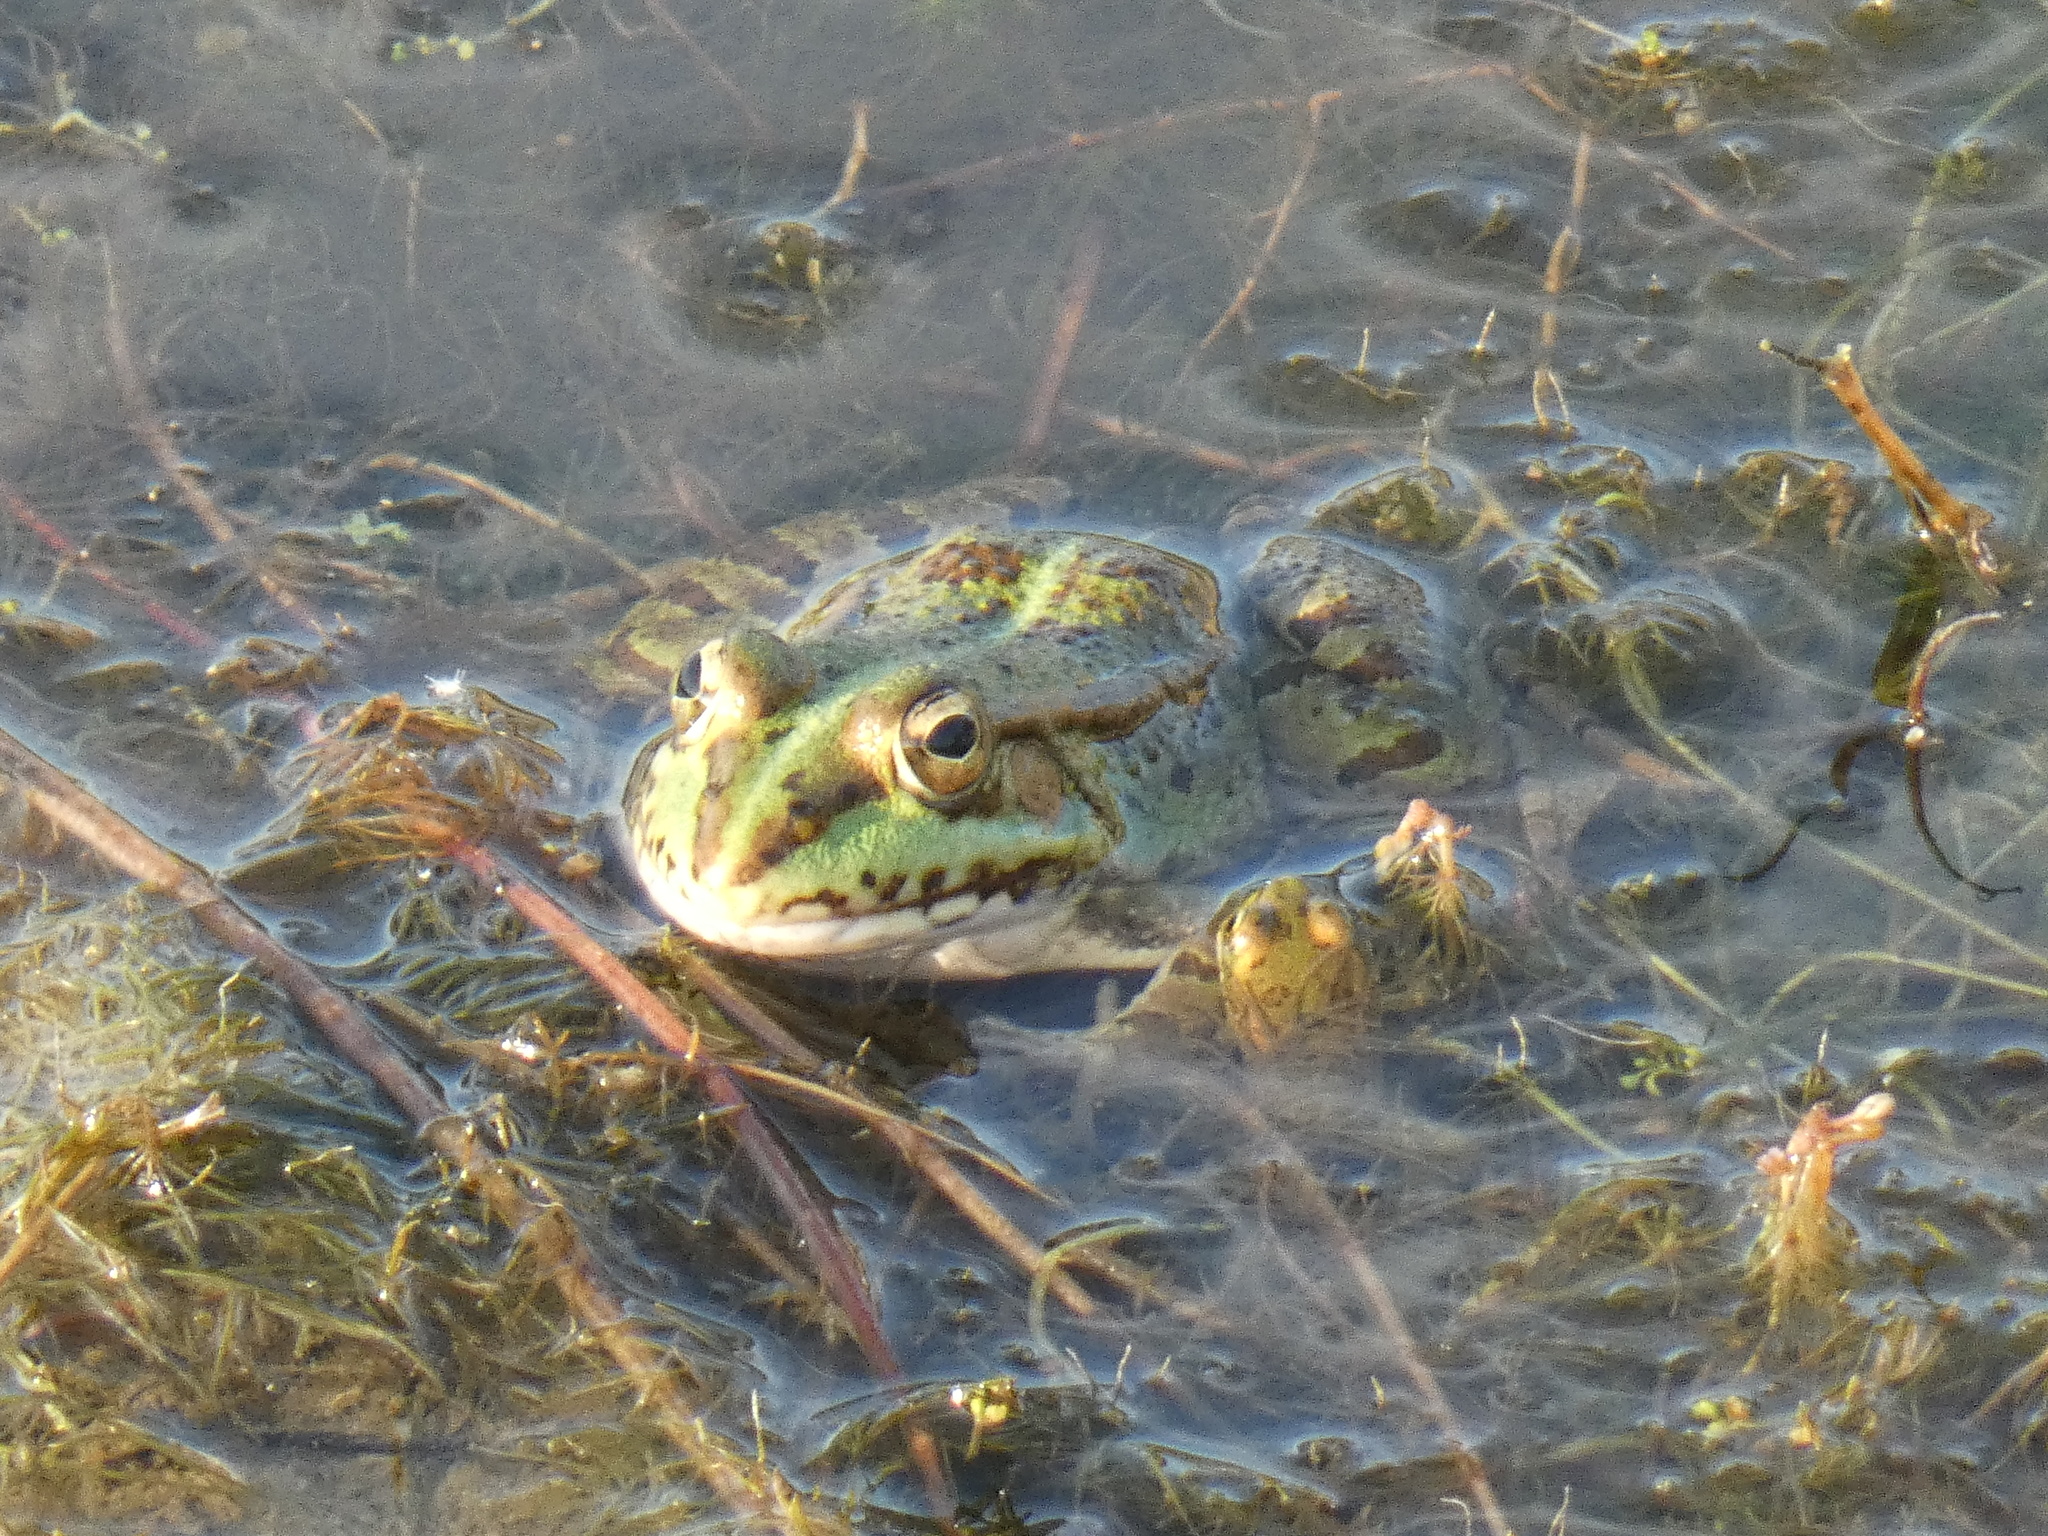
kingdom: Animalia
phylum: Chordata
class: Amphibia
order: Anura
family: Ranidae
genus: Pelophylax
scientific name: Pelophylax perezi
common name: Perez's frog
